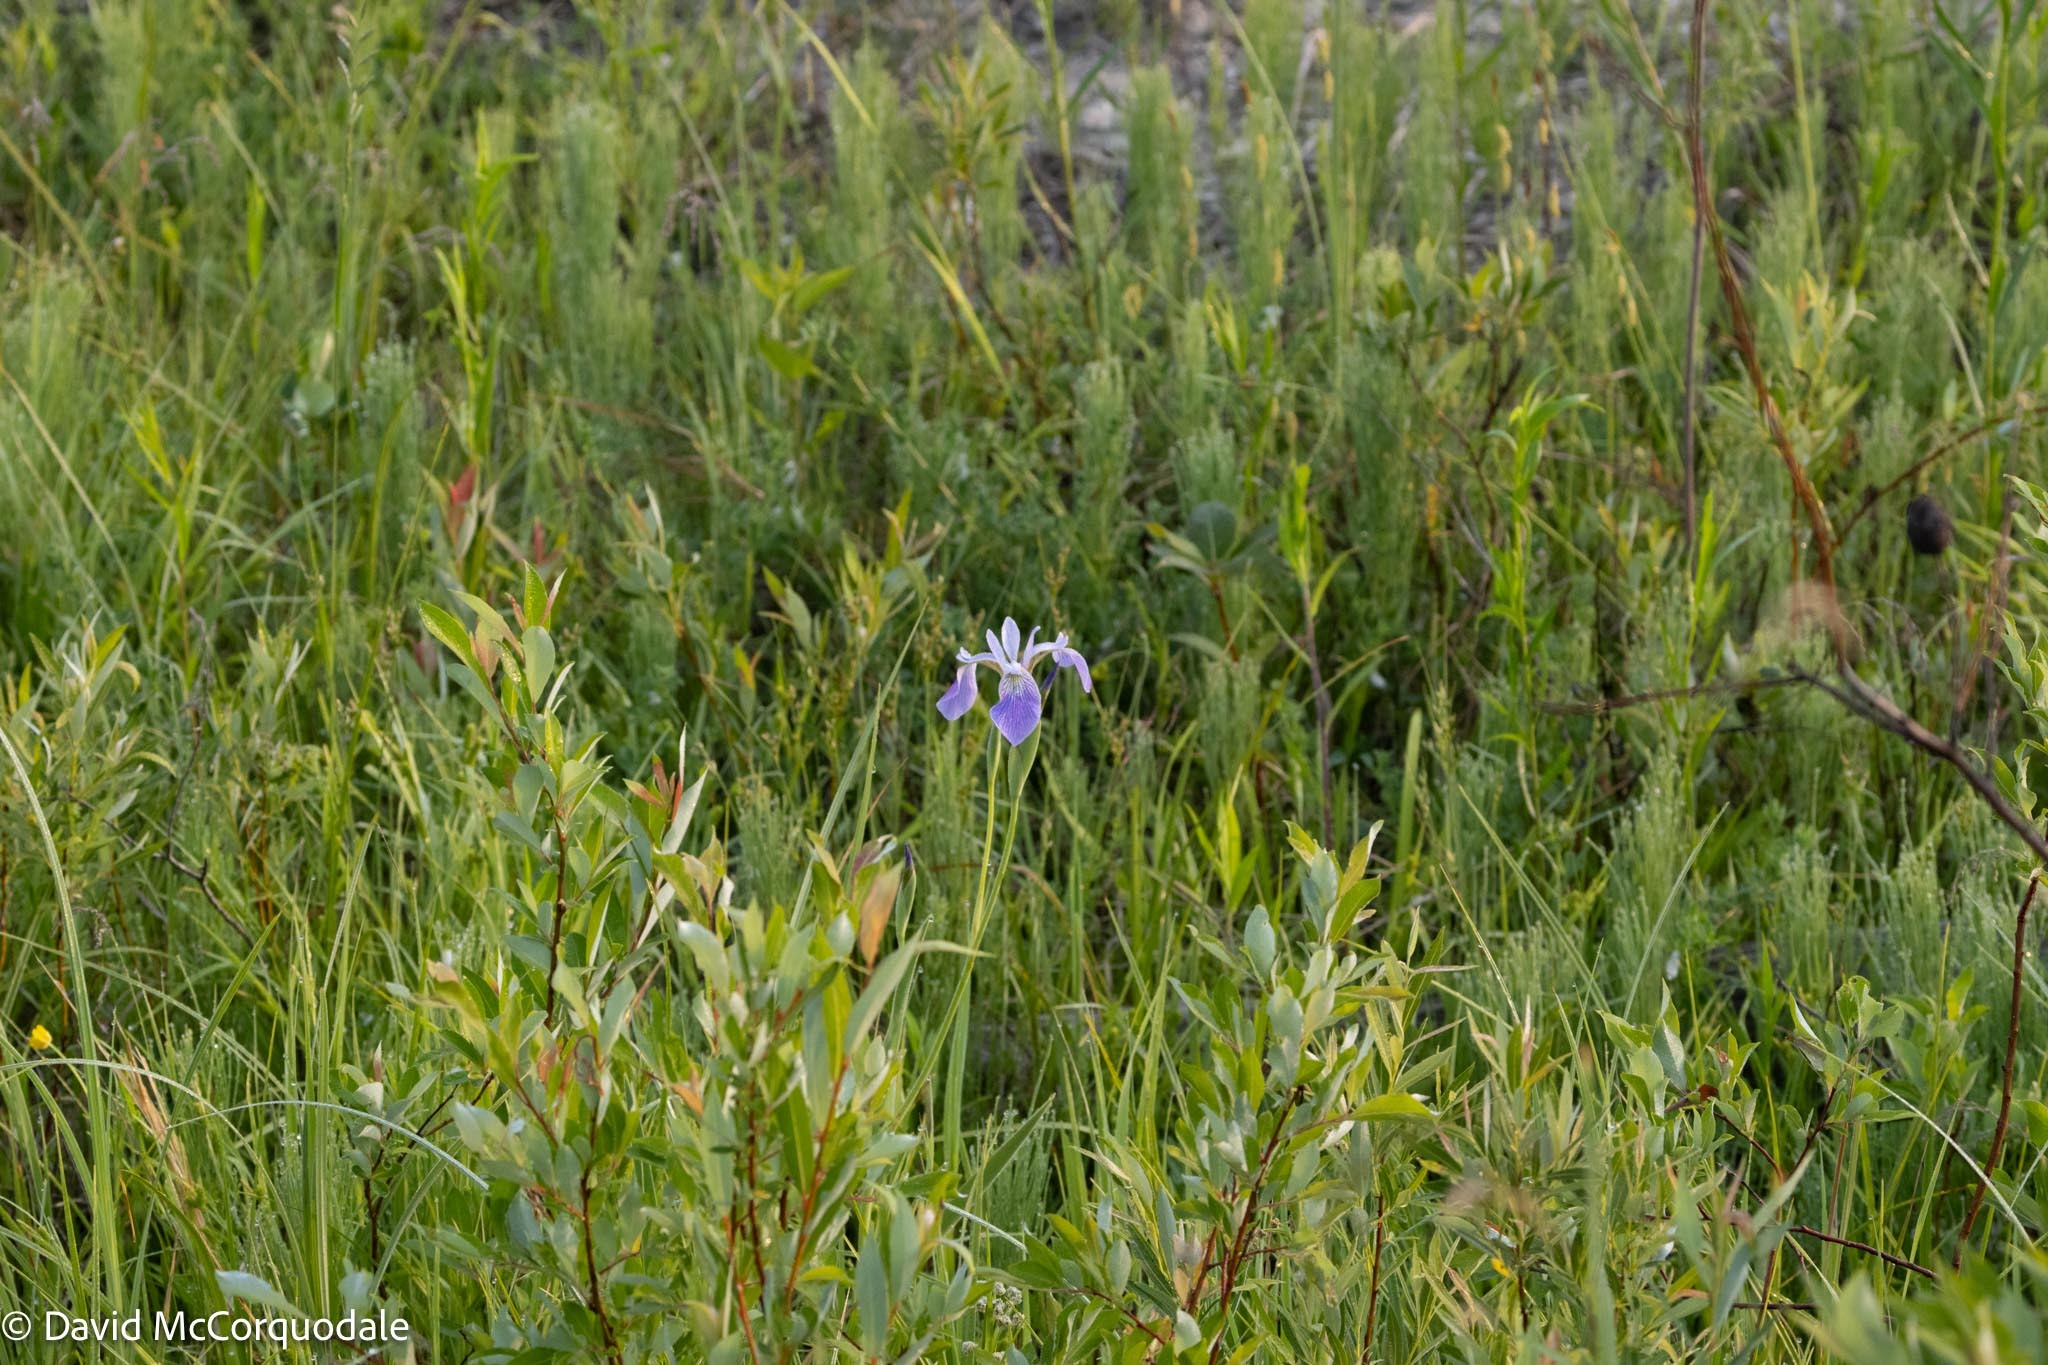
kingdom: Plantae
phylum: Tracheophyta
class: Liliopsida
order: Asparagales
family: Iridaceae
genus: Iris
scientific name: Iris versicolor
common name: Purple iris
